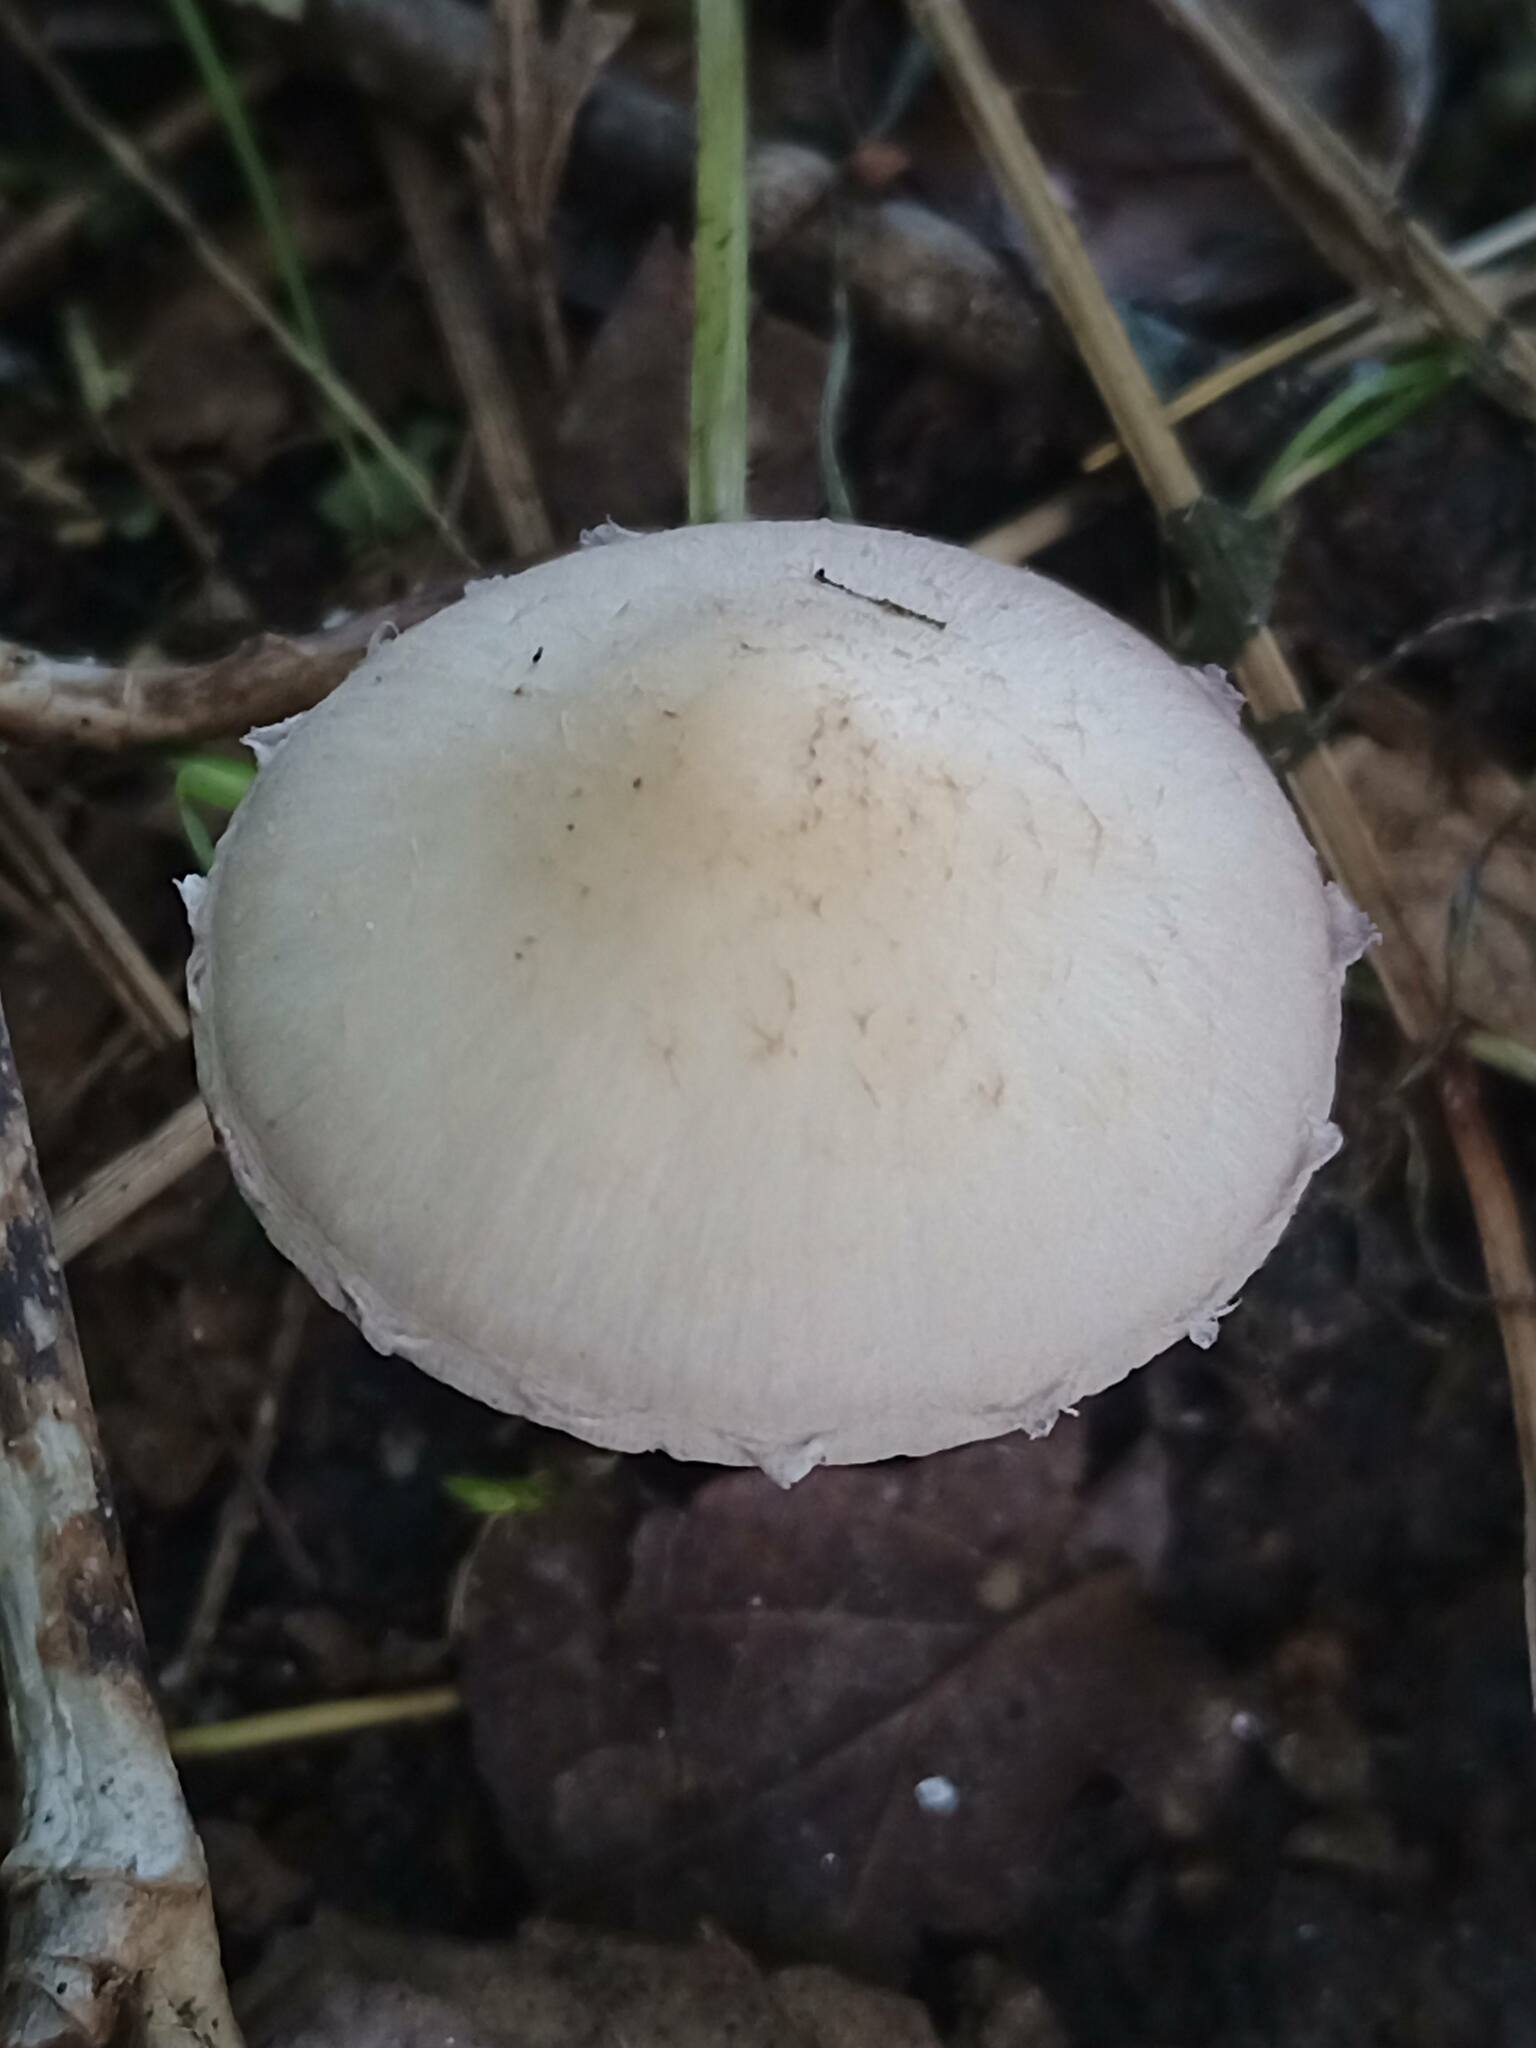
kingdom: Fungi
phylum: Basidiomycota
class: Agaricomycetes
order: Agaricales
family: Psathyrellaceae
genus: Candolleomyces
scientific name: Candolleomyces candolleanus
